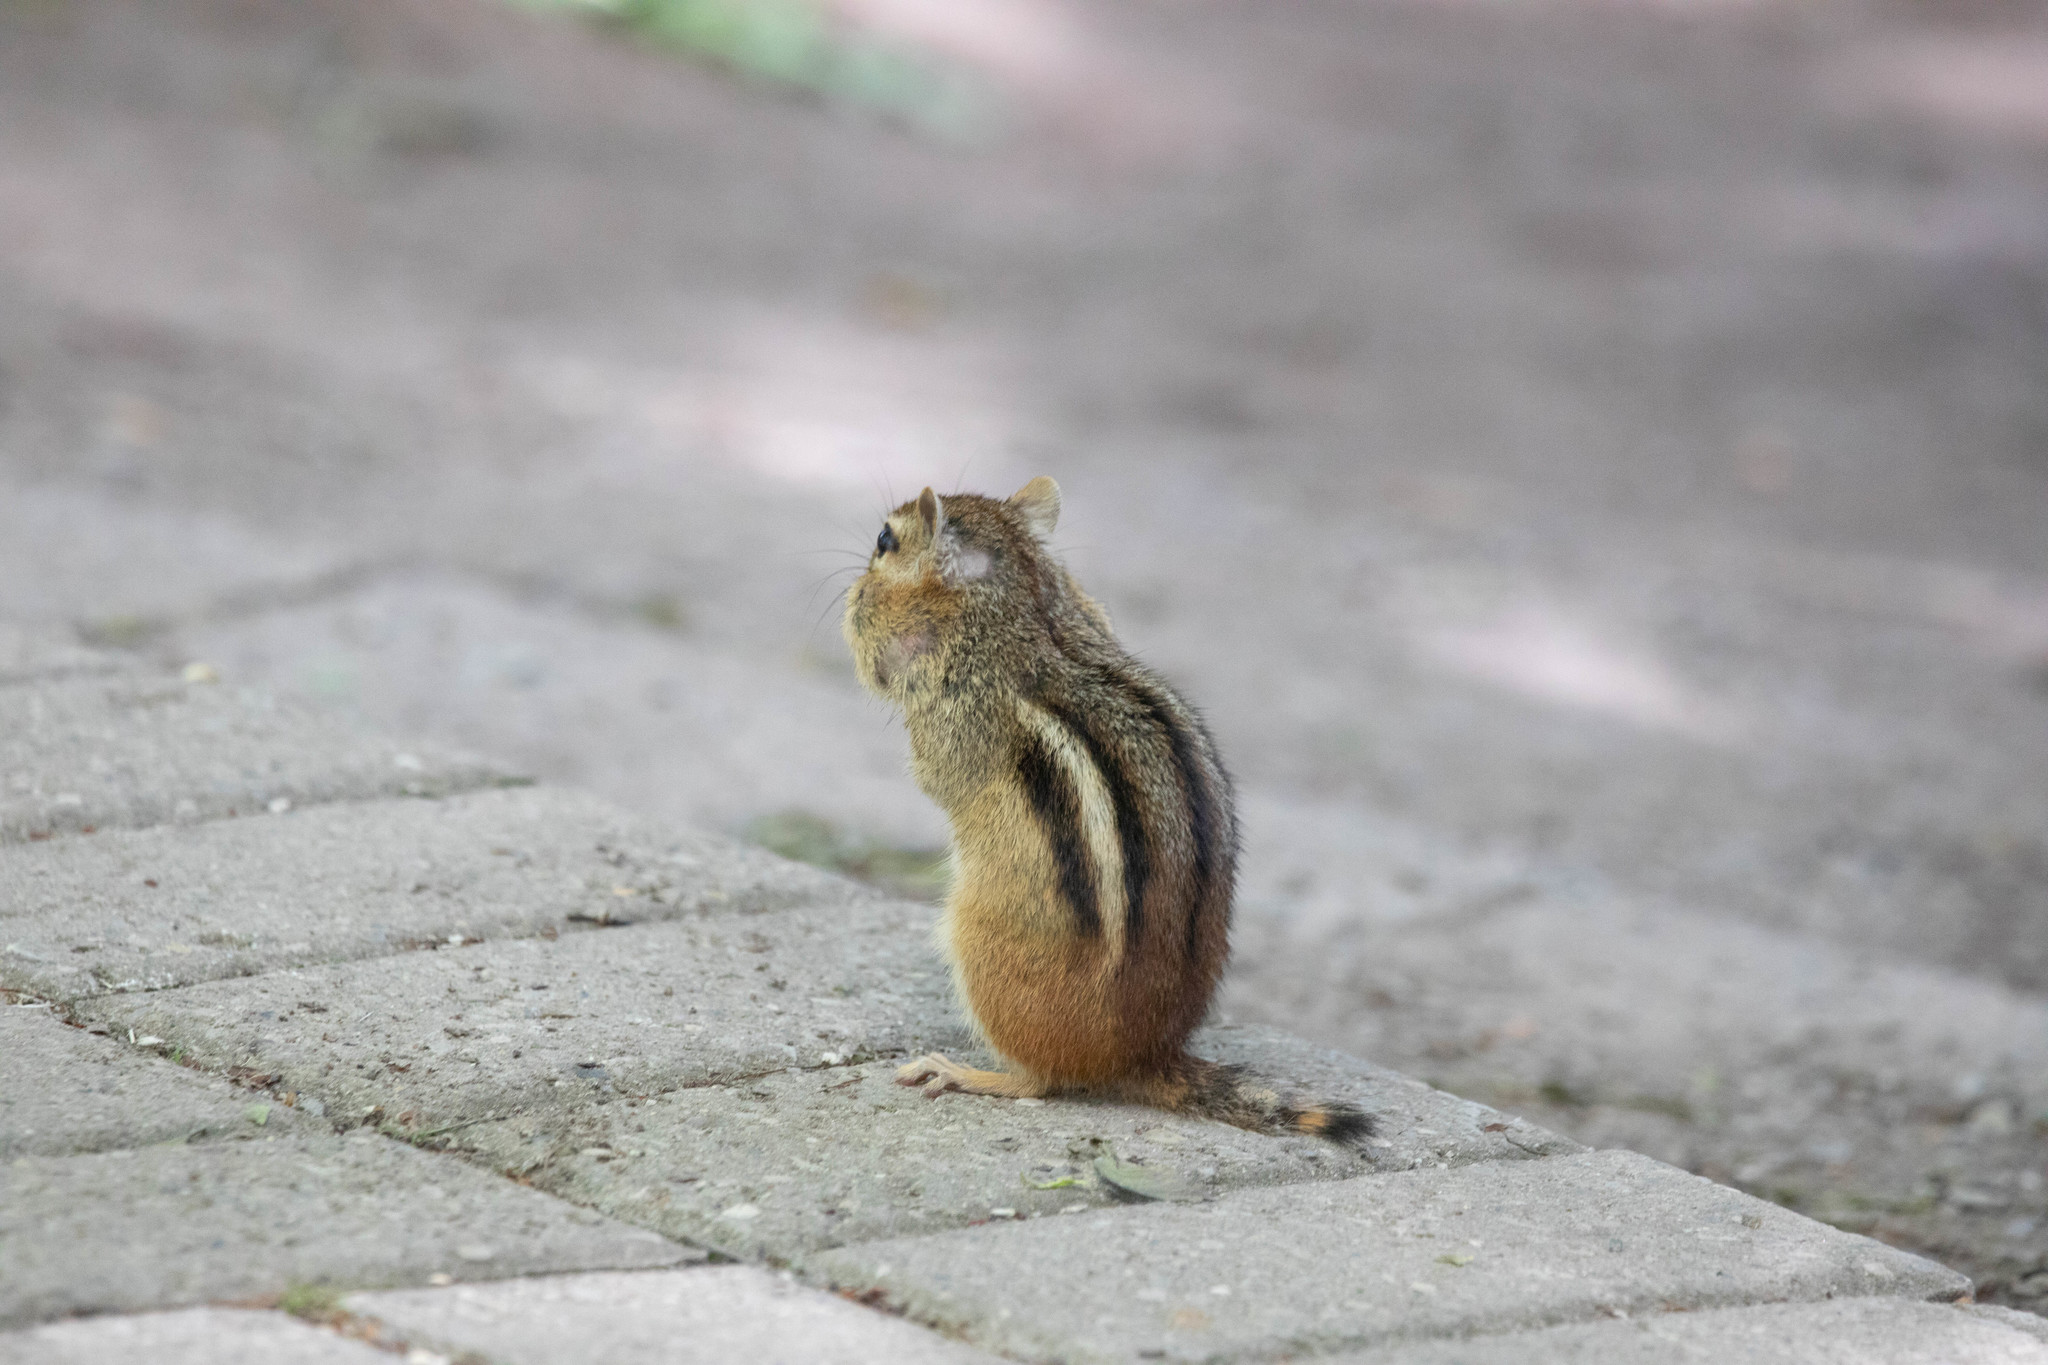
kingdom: Animalia
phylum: Chordata
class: Mammalia
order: Rodentia
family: Sciuridae
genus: Tamias
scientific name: Tamias striatus
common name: Eastern chipmunk
